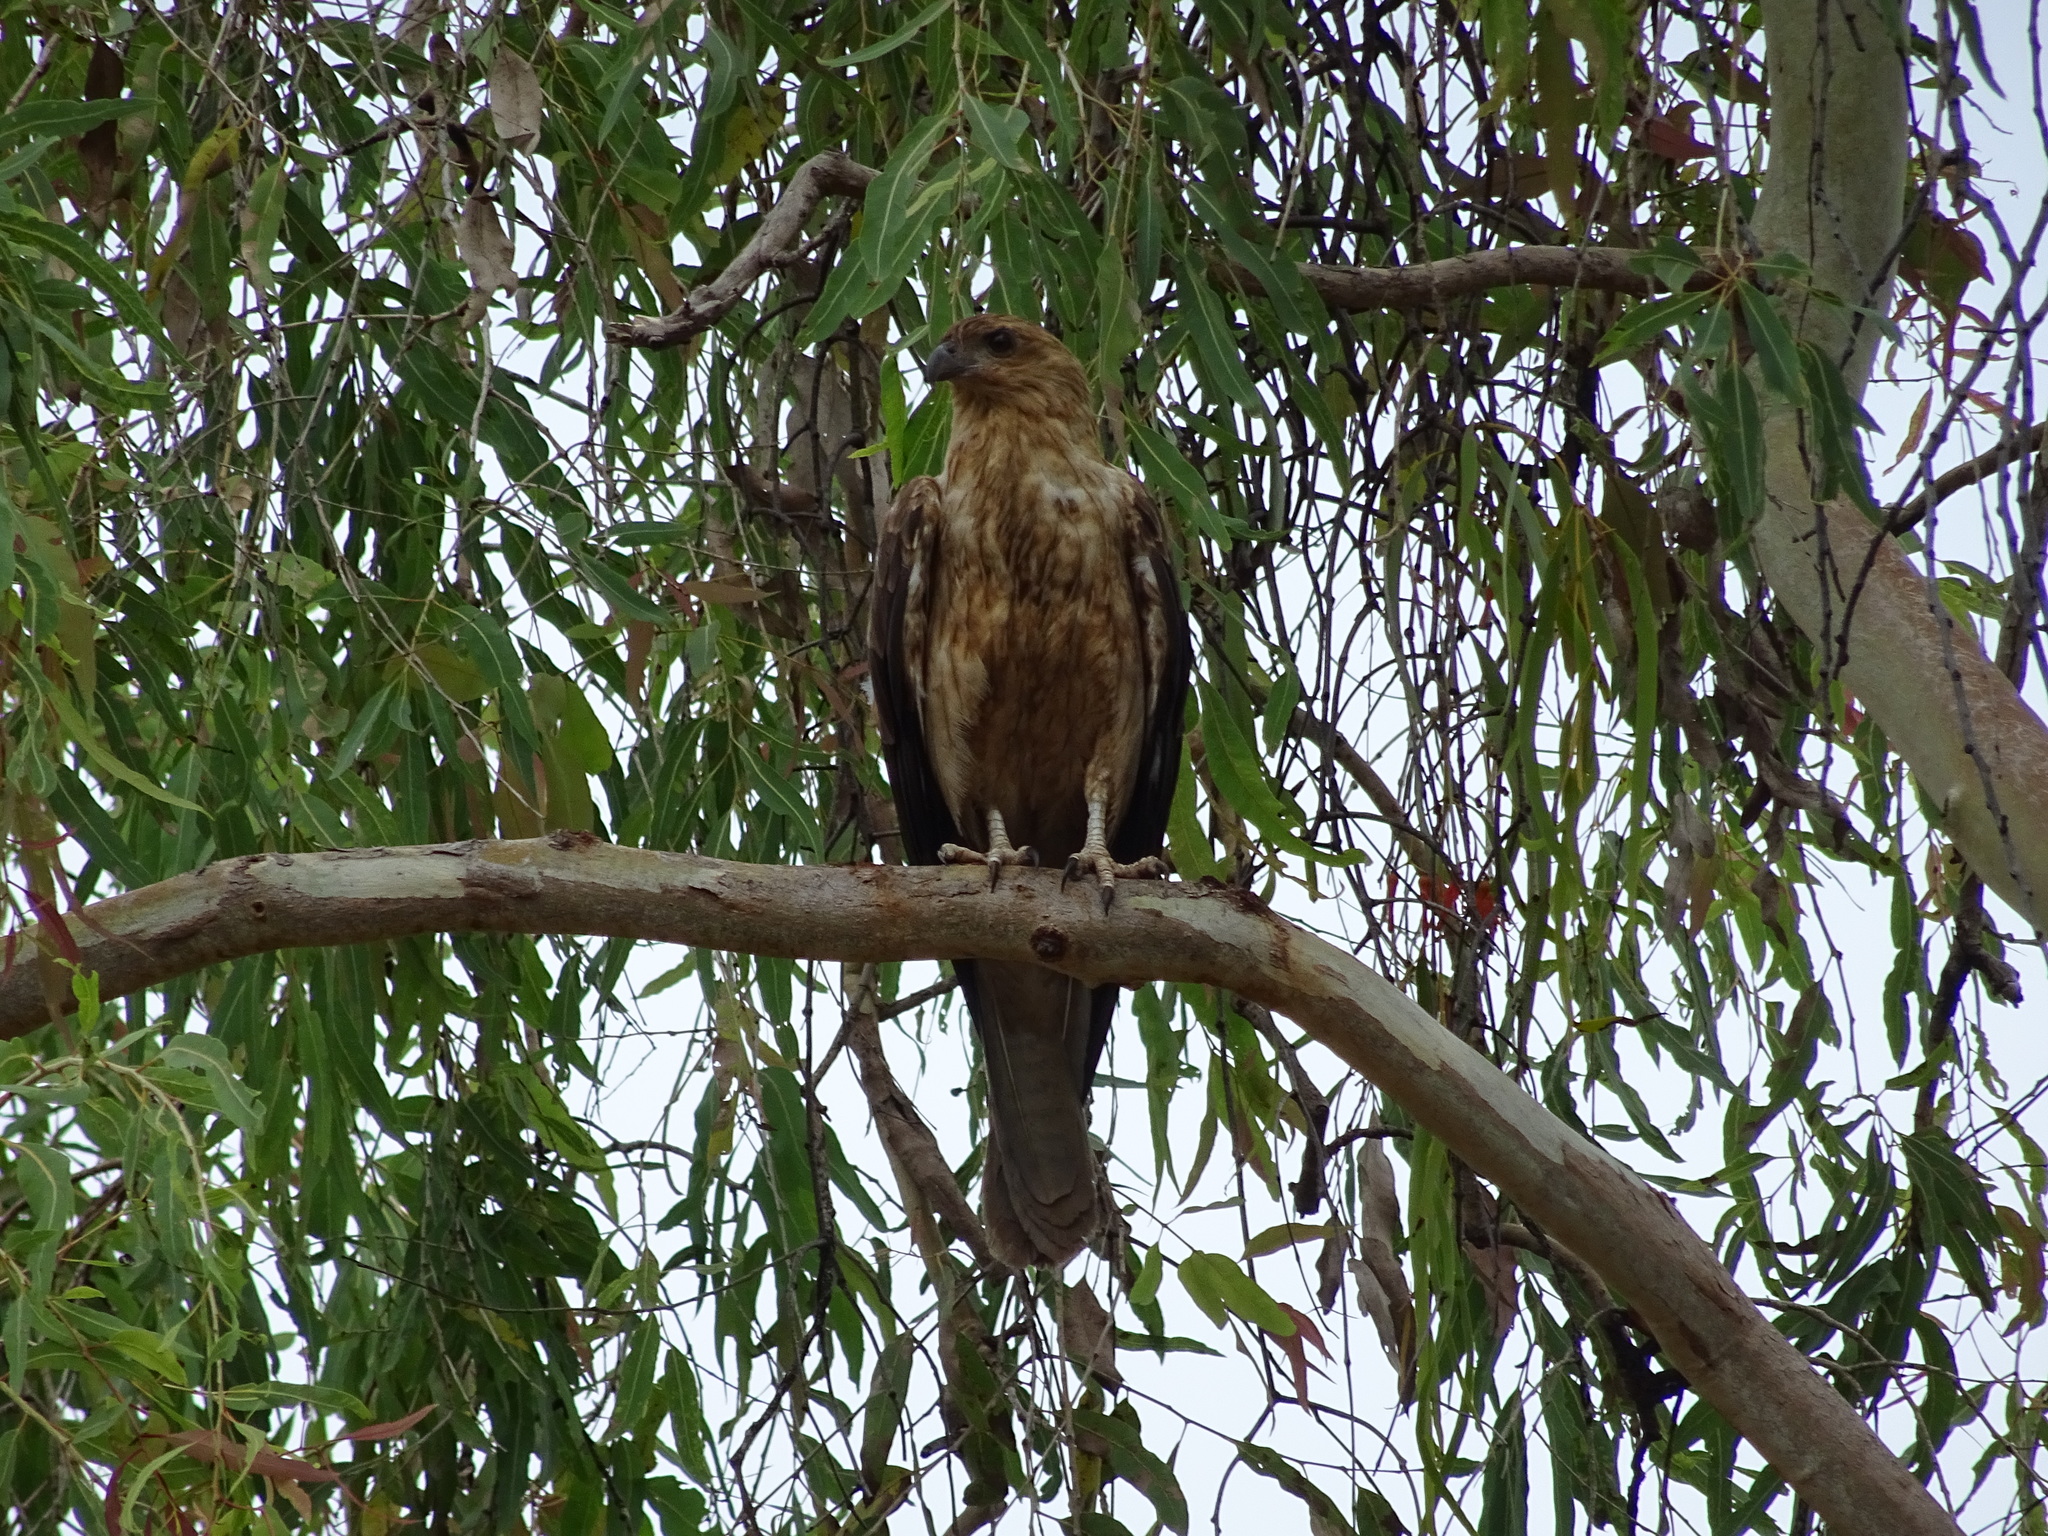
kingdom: Animalia
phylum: Chordata
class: Aves
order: Accipitriformes
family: Accipitridae
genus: Haliastur
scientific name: Haliastur sphenurus
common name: Whistling kite
